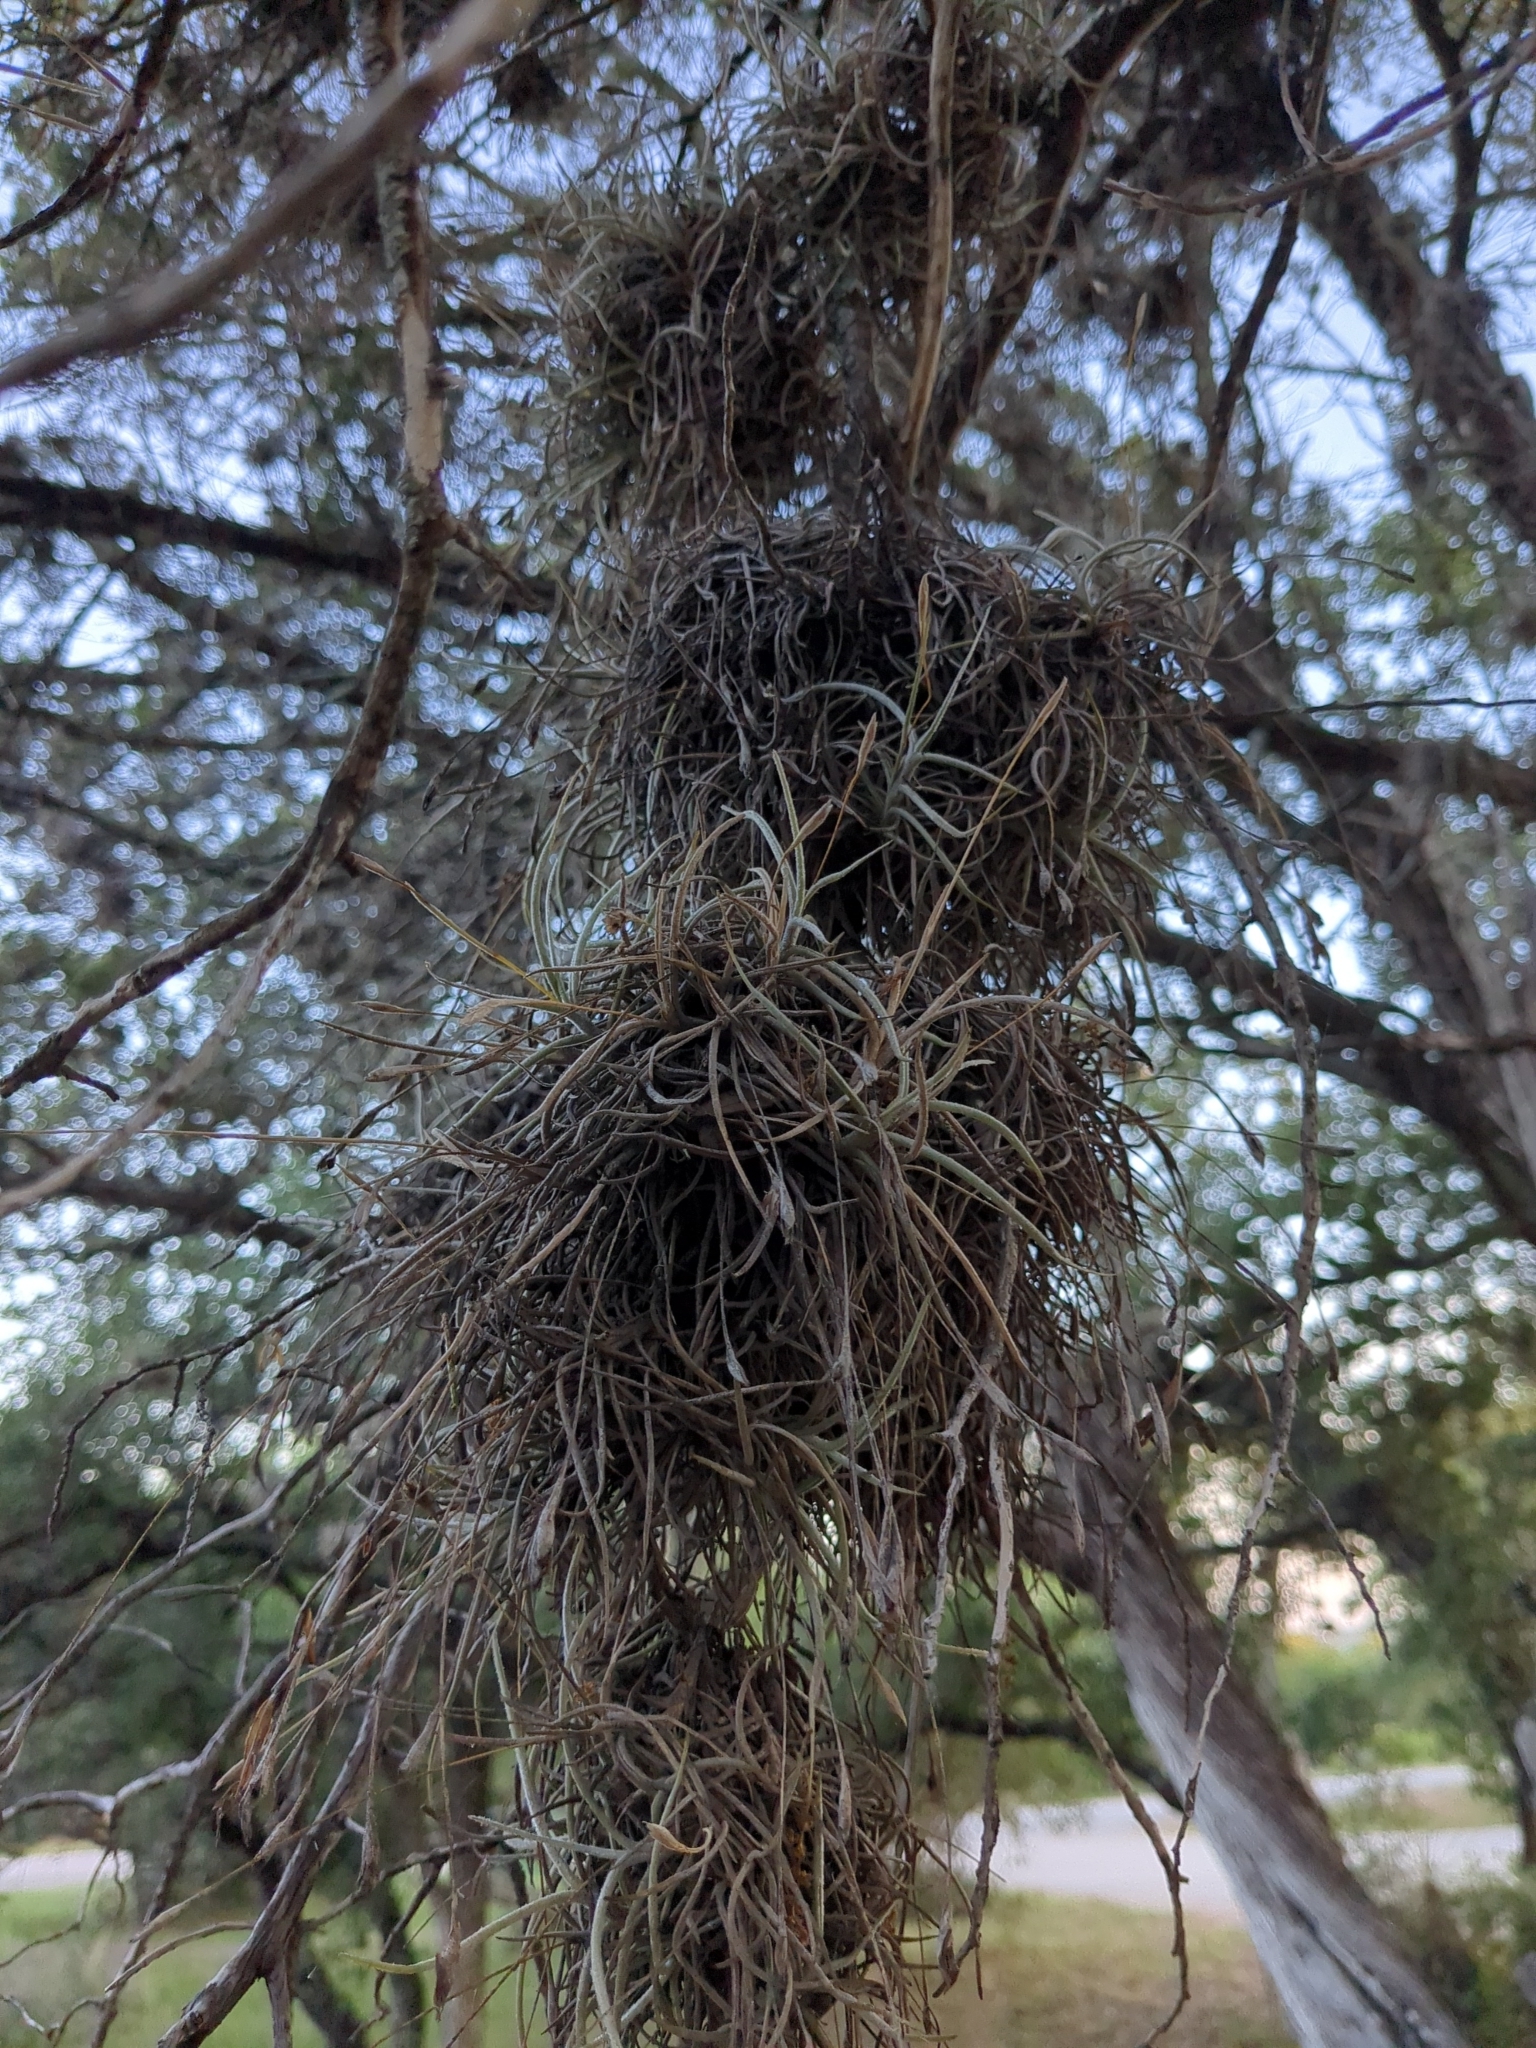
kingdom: Plantae
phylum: Tracheophyta
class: Liliopsida
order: Poales
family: Bromeliaceae
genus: Tillandsia
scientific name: Tillandsia recurvata
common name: Small ballmoss
